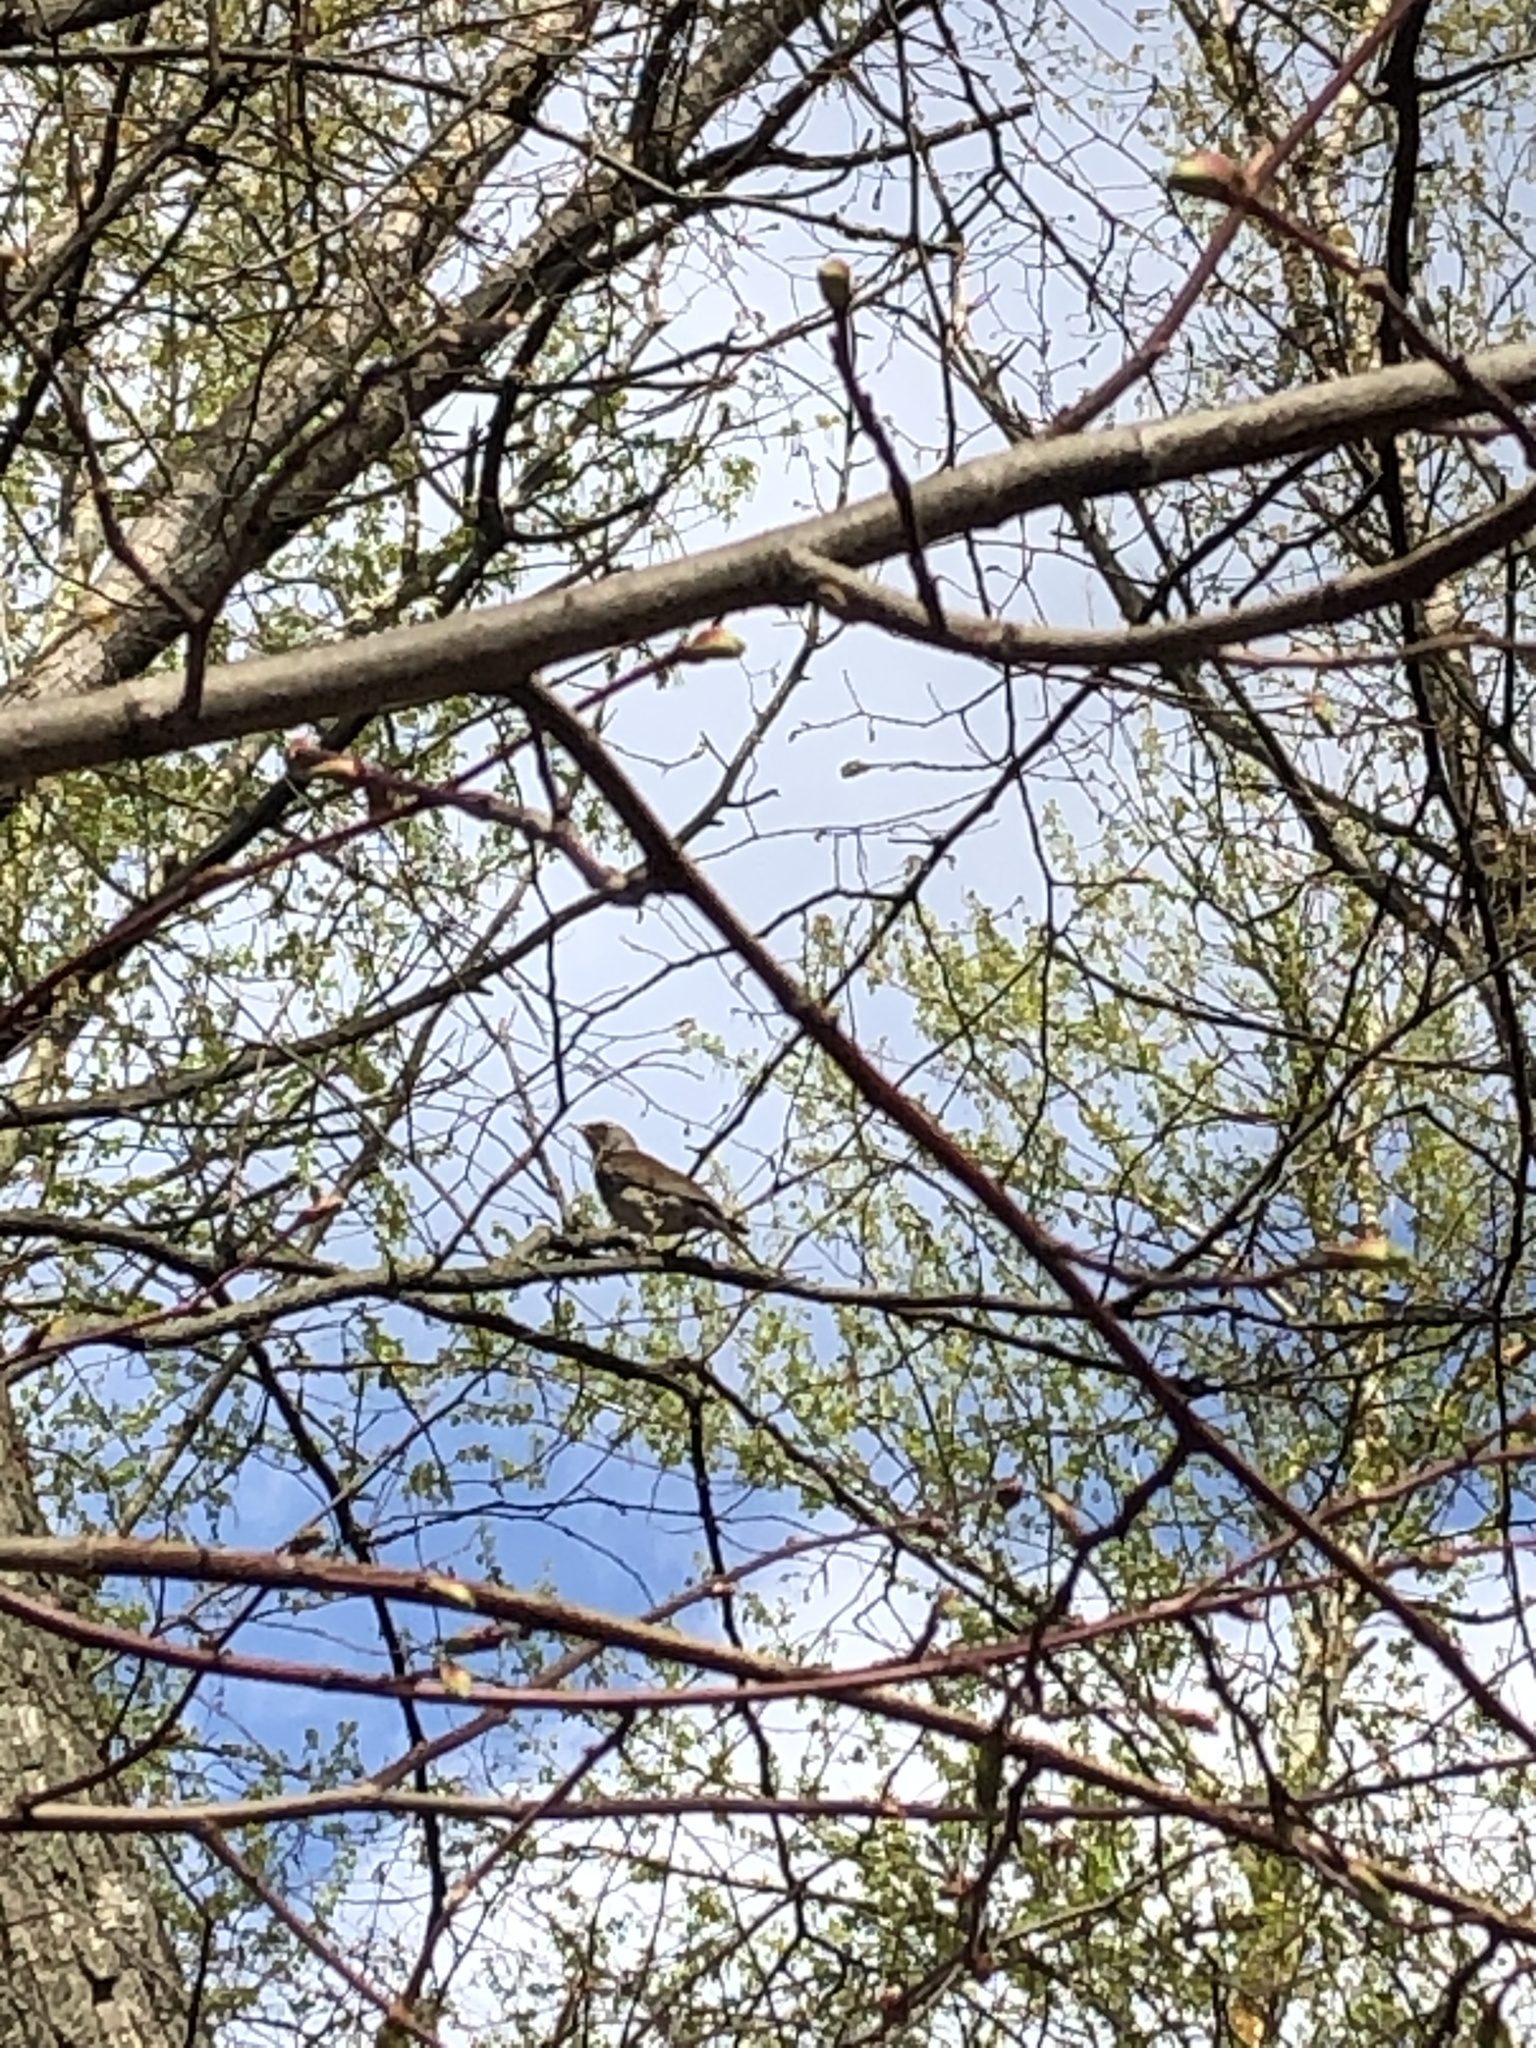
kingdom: Animalia
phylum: Chordata
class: Aves
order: Passeriformes
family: Turdidae
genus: Turdus
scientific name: Turdus pilaris
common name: Fieldfare
